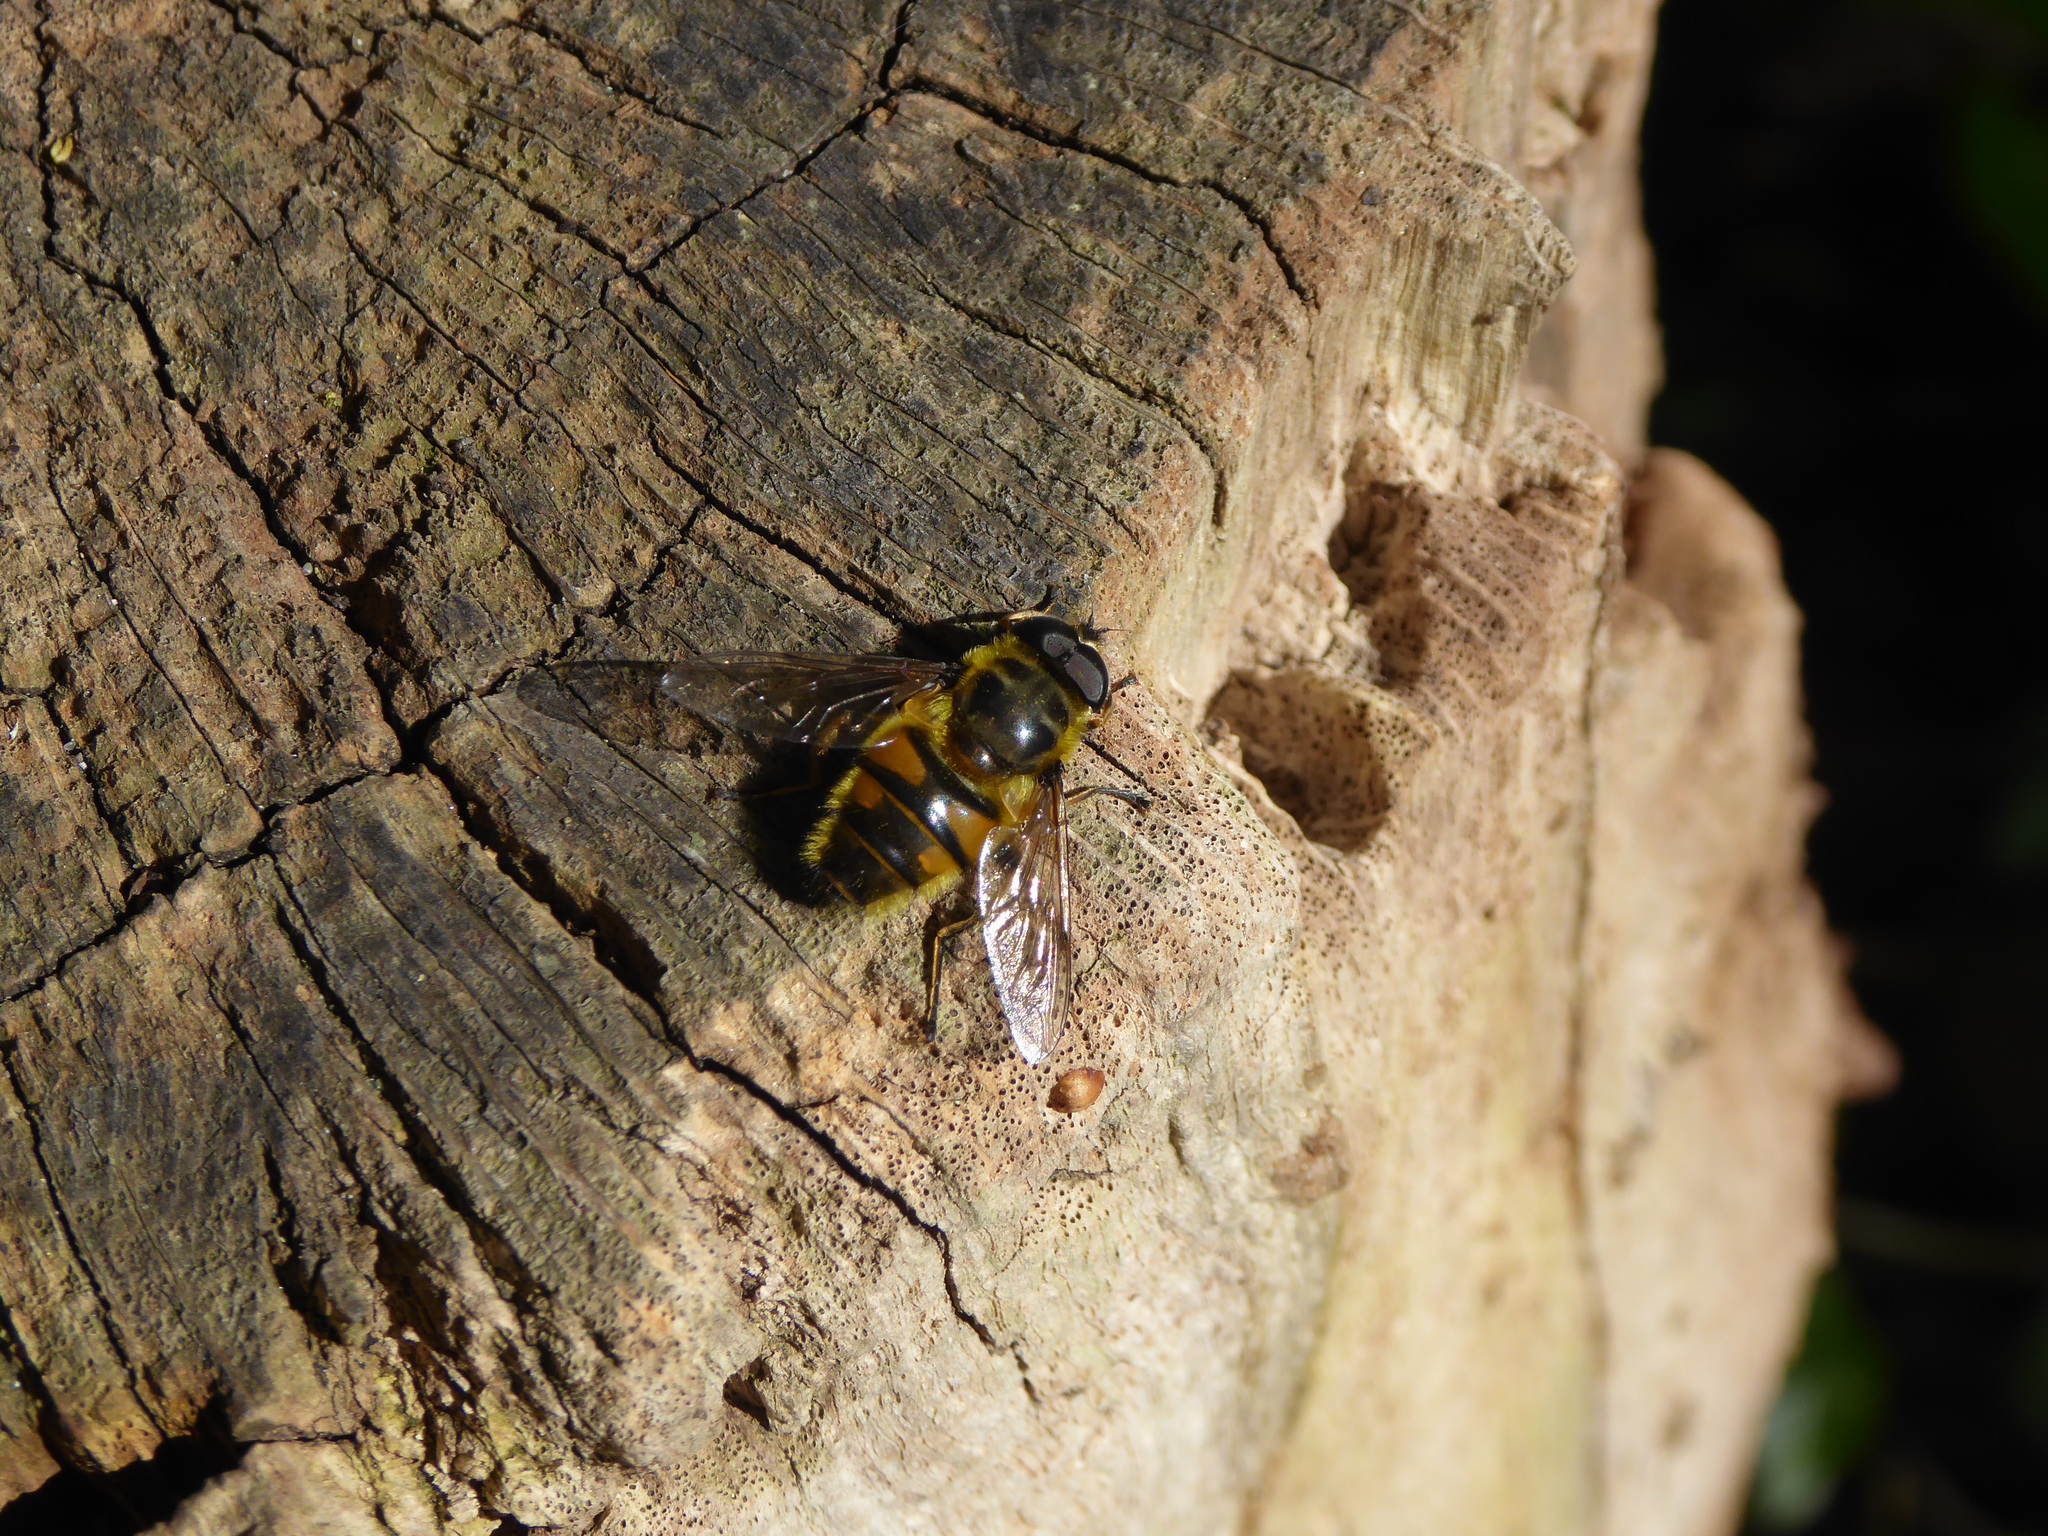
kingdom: Animalia
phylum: Arthropoda
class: Insecta
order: Diptera
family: Syrphidae
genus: Myathropa
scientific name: Myathropa florea
